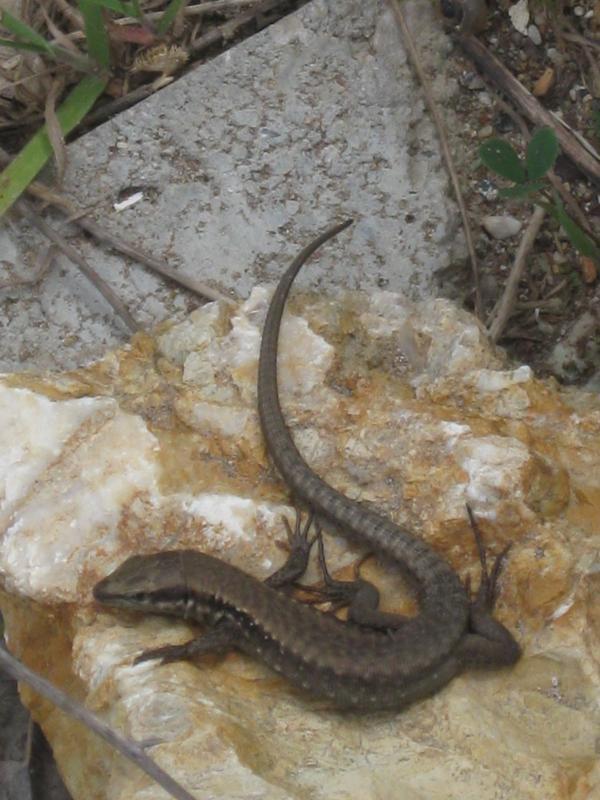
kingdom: Animalia
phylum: Chordata
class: Squamata
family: Lacertidae
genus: Phoenicolacerta
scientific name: Phoenicolacerta laevis
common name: Lebanon lizard
